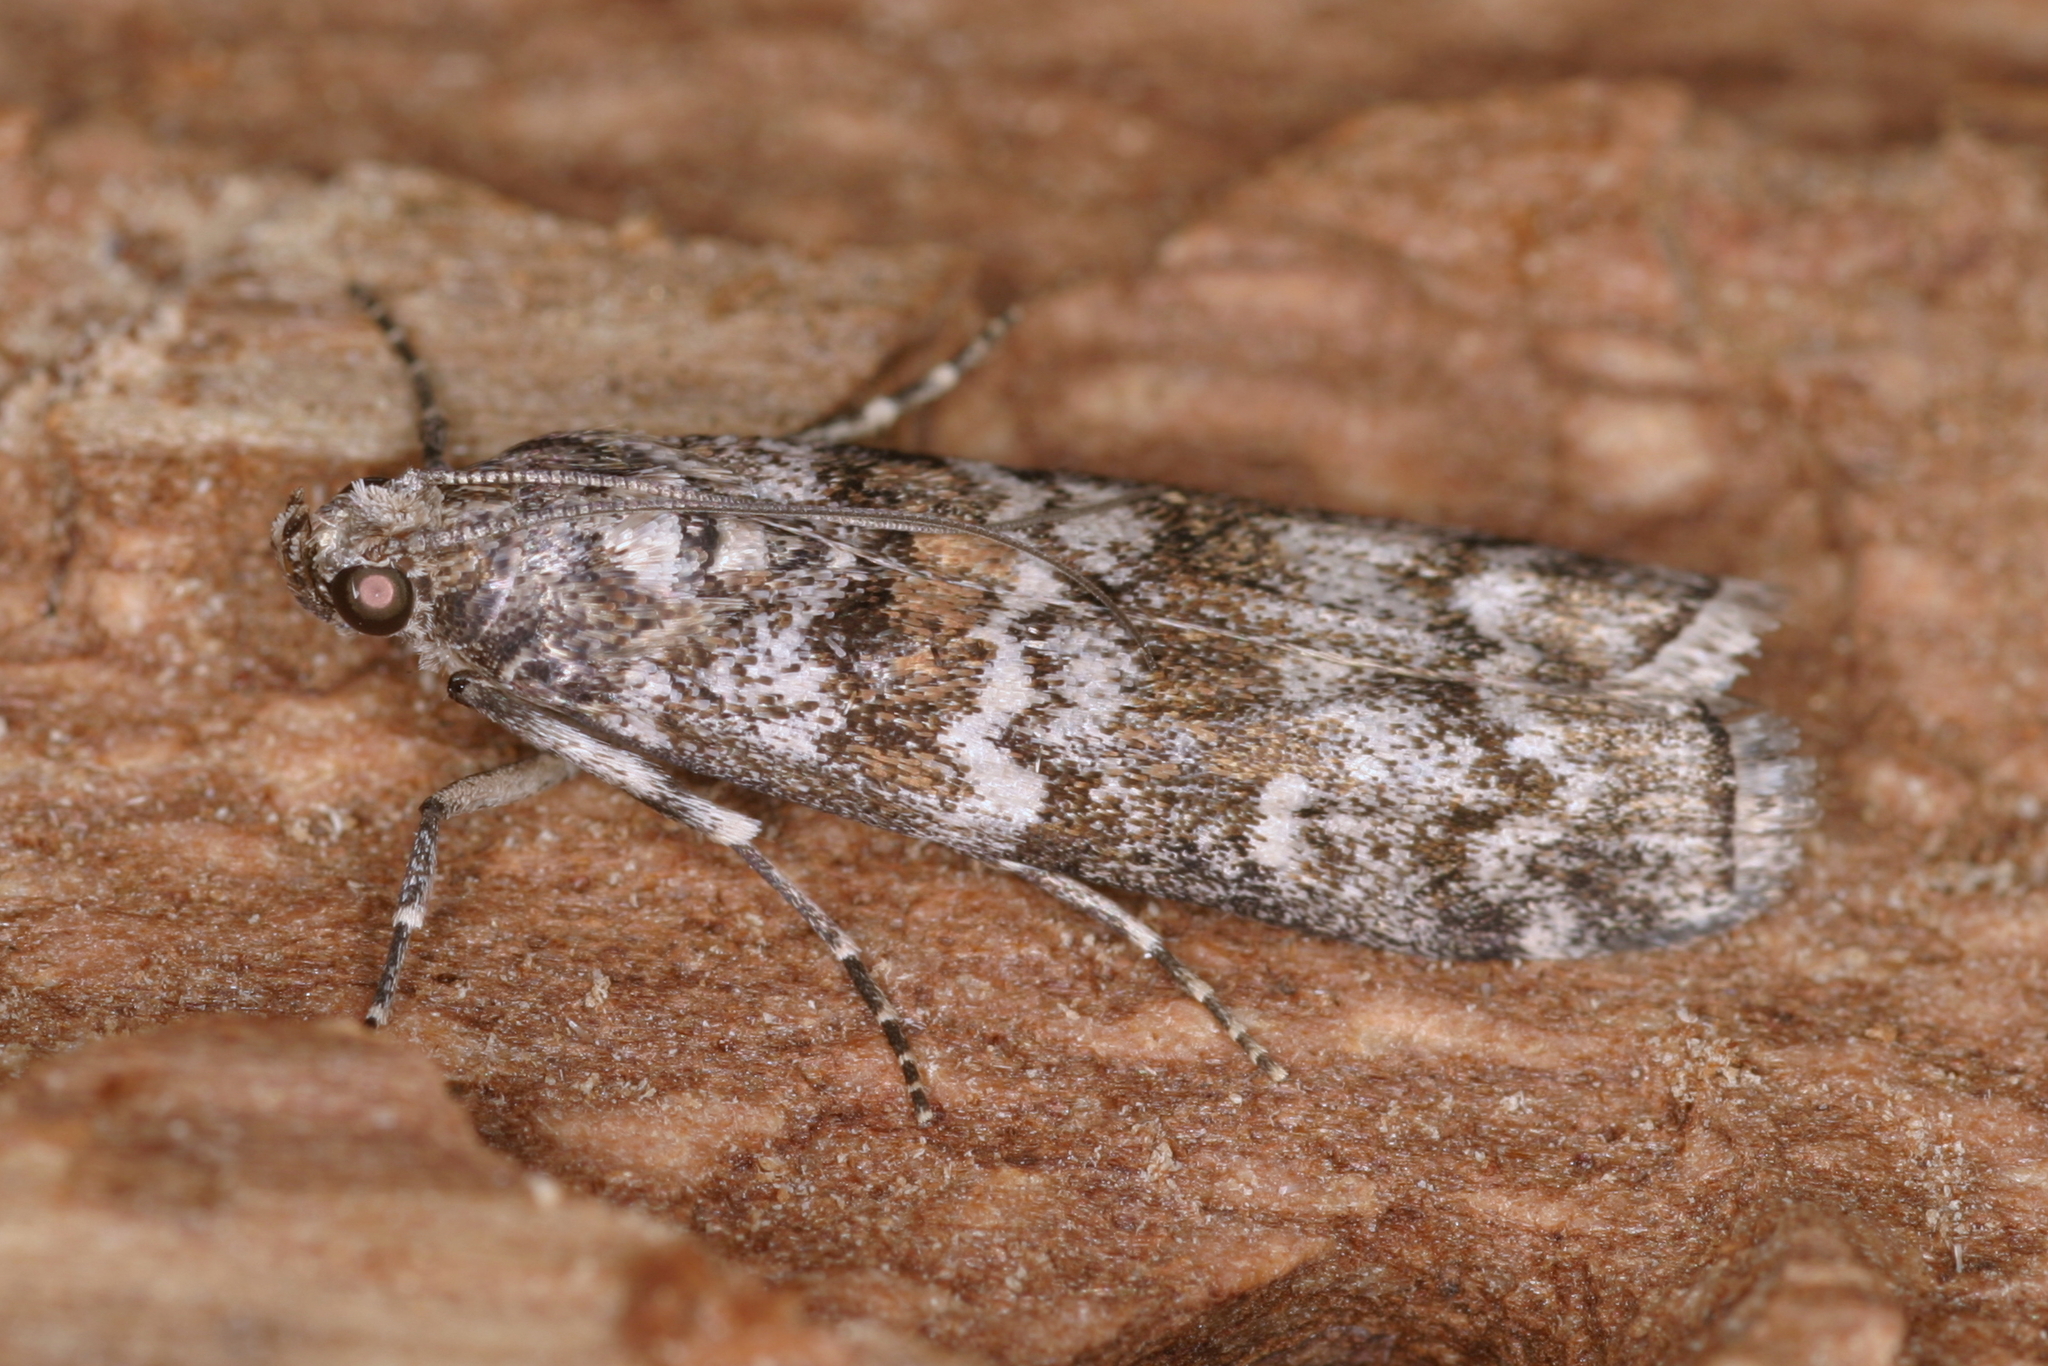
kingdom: Animalia
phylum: Arthropoda
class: Insecta
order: Lepidoptera
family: Pyralidae
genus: Dioryctria
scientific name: Dioryctria abietella
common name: Dark pine knot-horn
